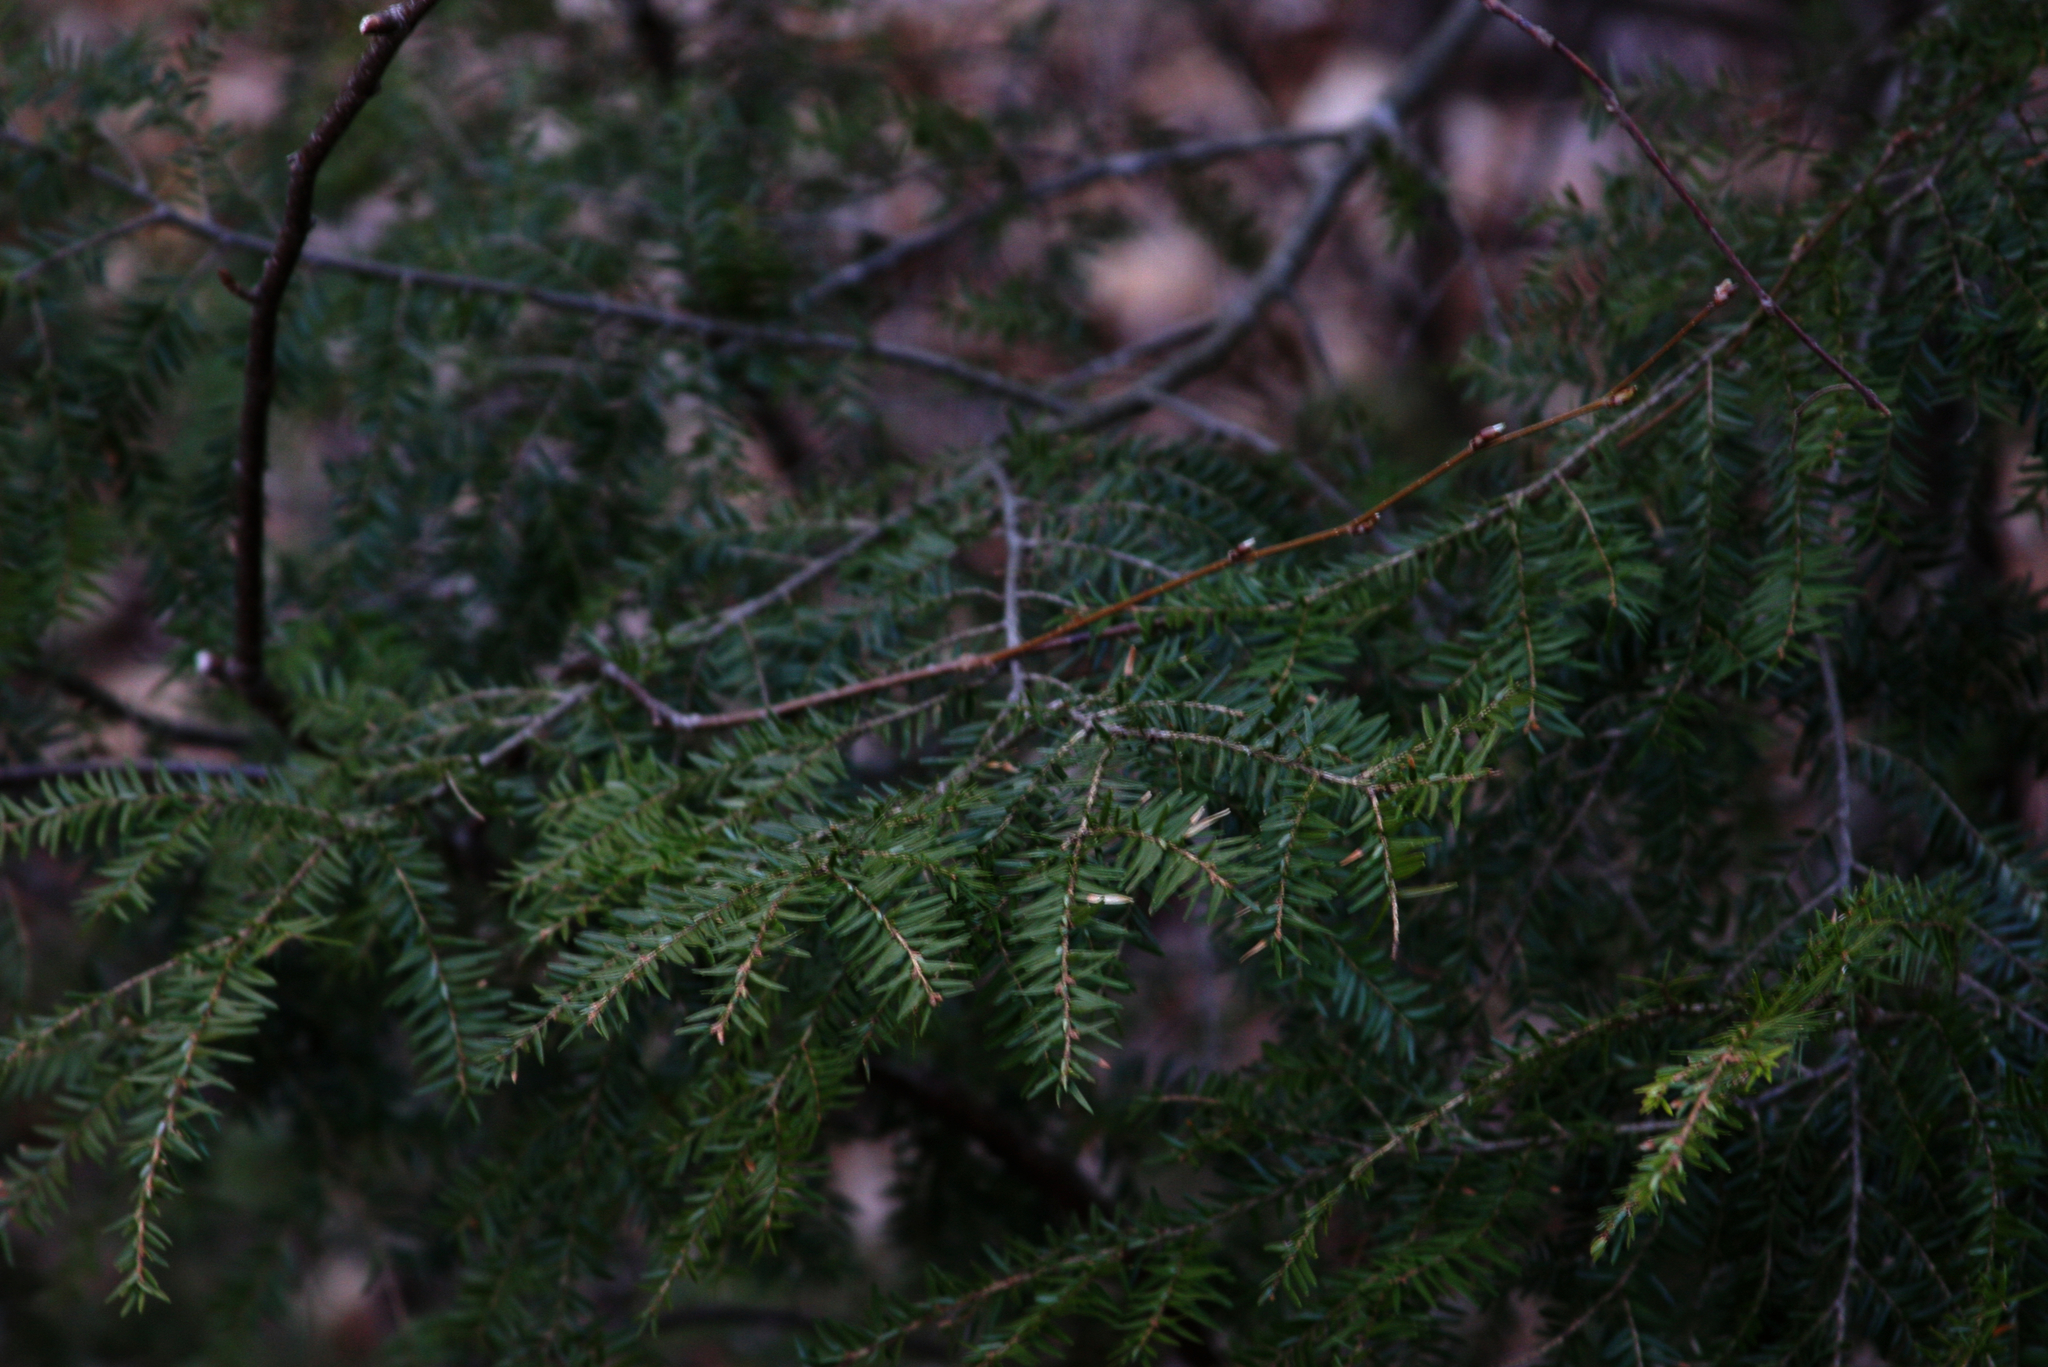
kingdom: Plantae
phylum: Tracheophyta
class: Pinopsida
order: Pinales
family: Pinaceae
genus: Tsuga
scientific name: Tsuga canadensis
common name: Eastern hemlock
